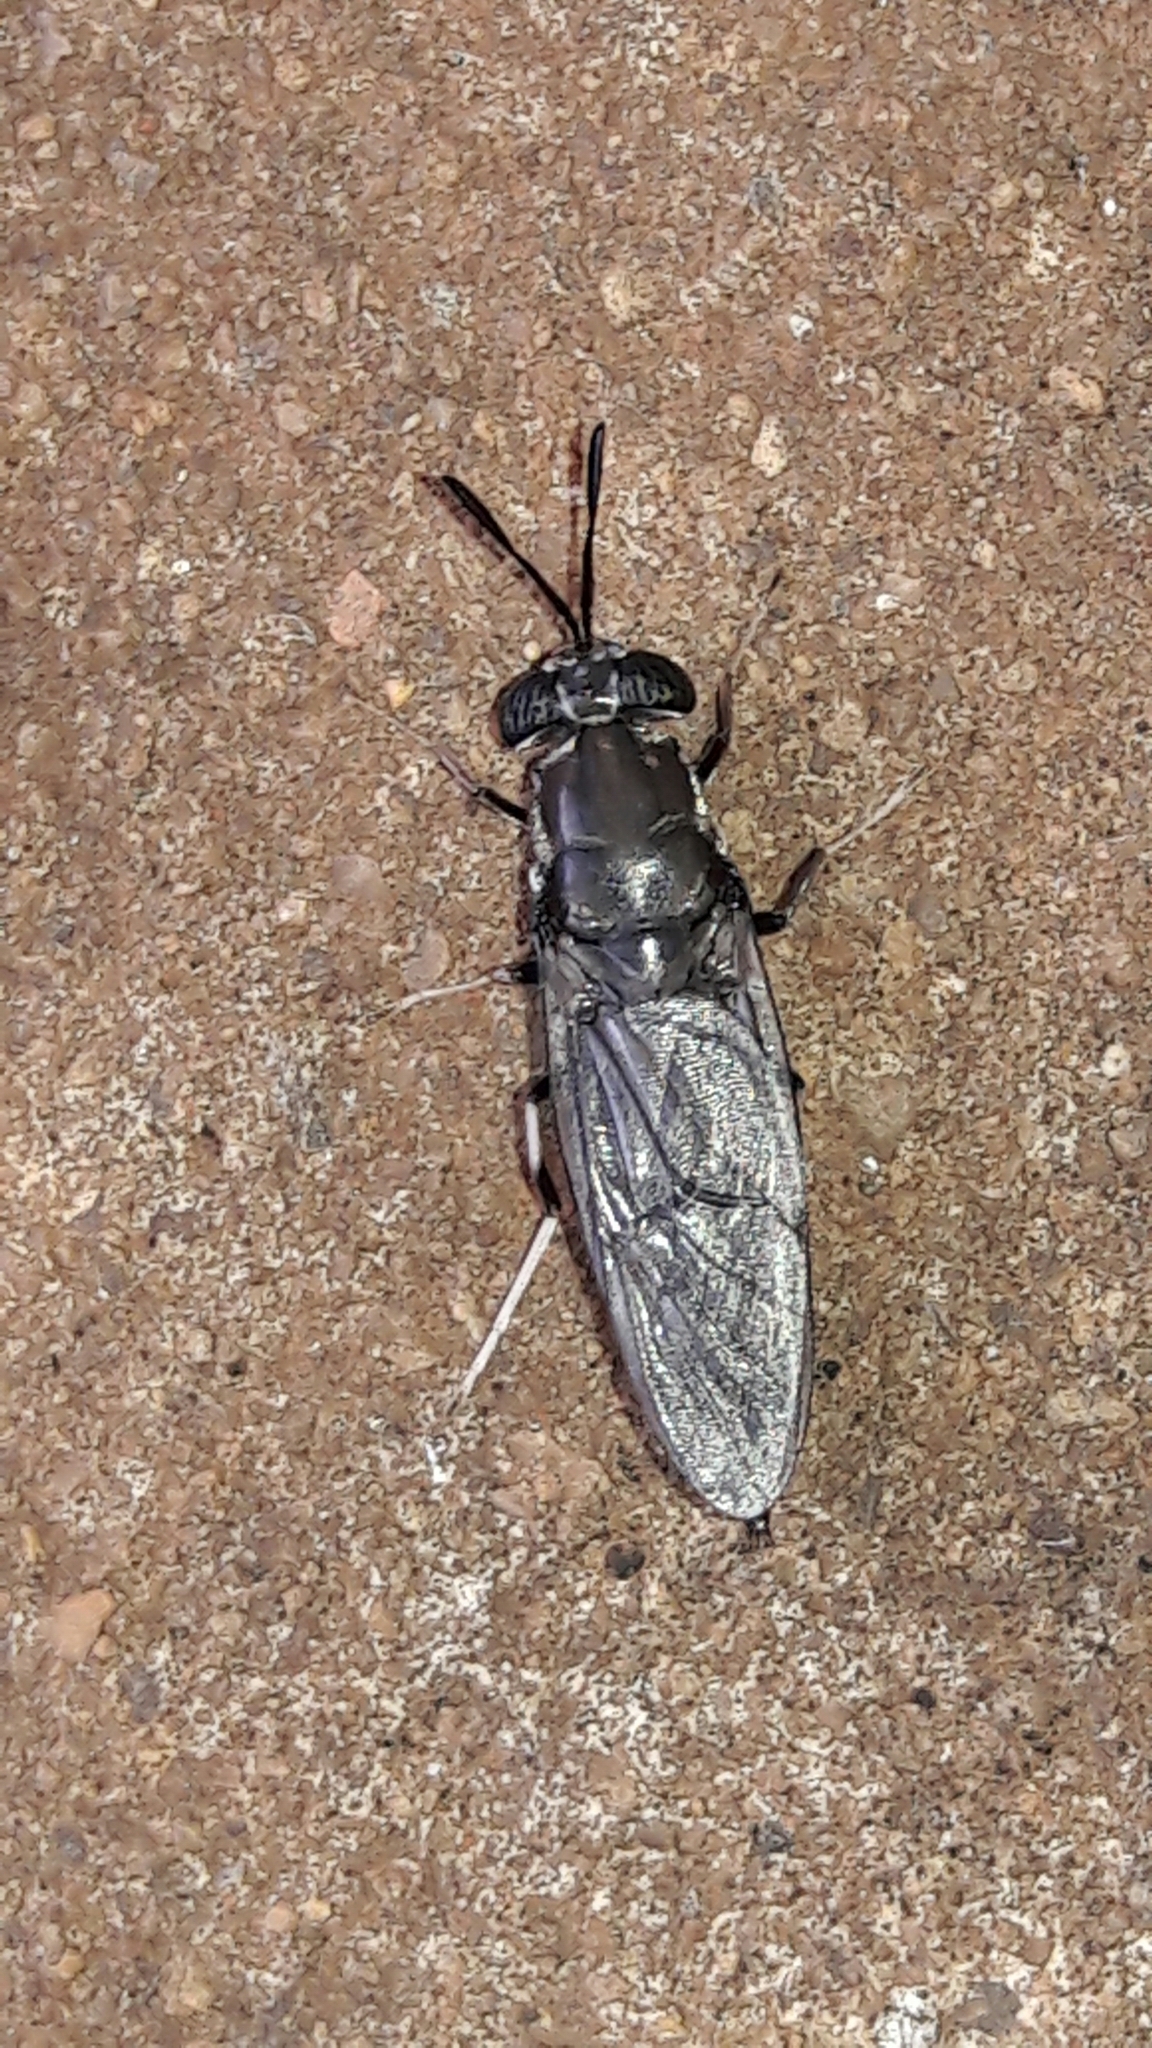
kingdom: Animalia
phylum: Arthropoda
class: Insecta
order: Diptera
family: Stratiomyidae
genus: Hermetia
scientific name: Hermetia illucens
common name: Black soldier fly
